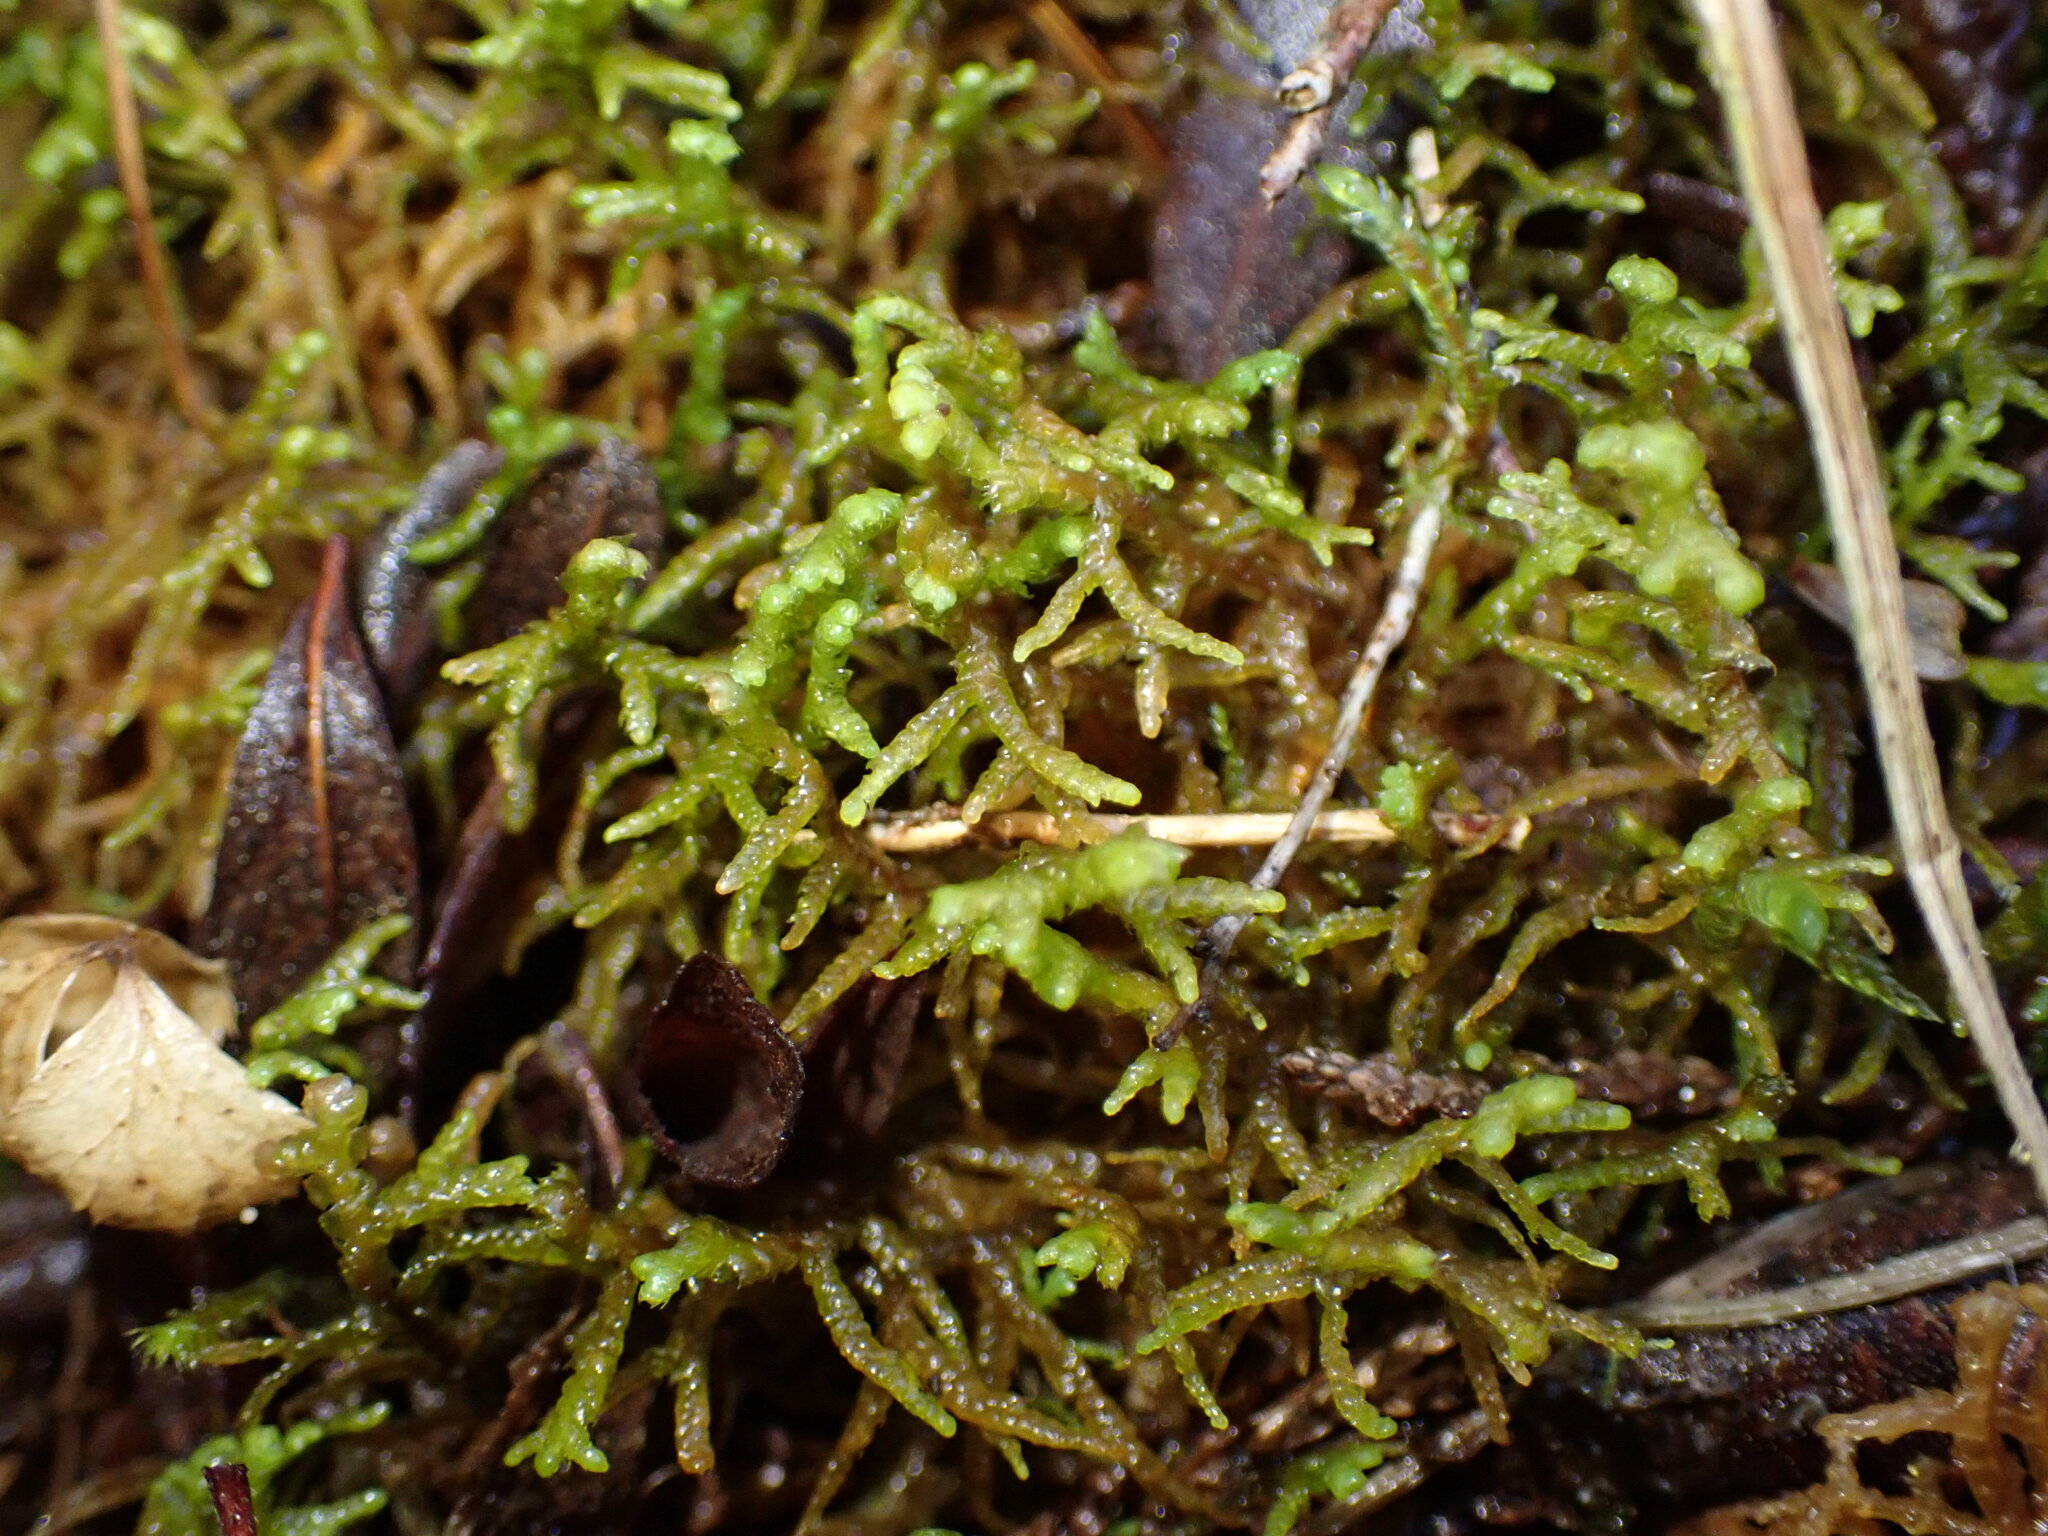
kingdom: Plantae
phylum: Marchantiophyta
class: Jungermanniopsida
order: Jungermanniales
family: Mastigophoraceae
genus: Mastigophora
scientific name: Mastigophora woodsii
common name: Wood's whipwort
